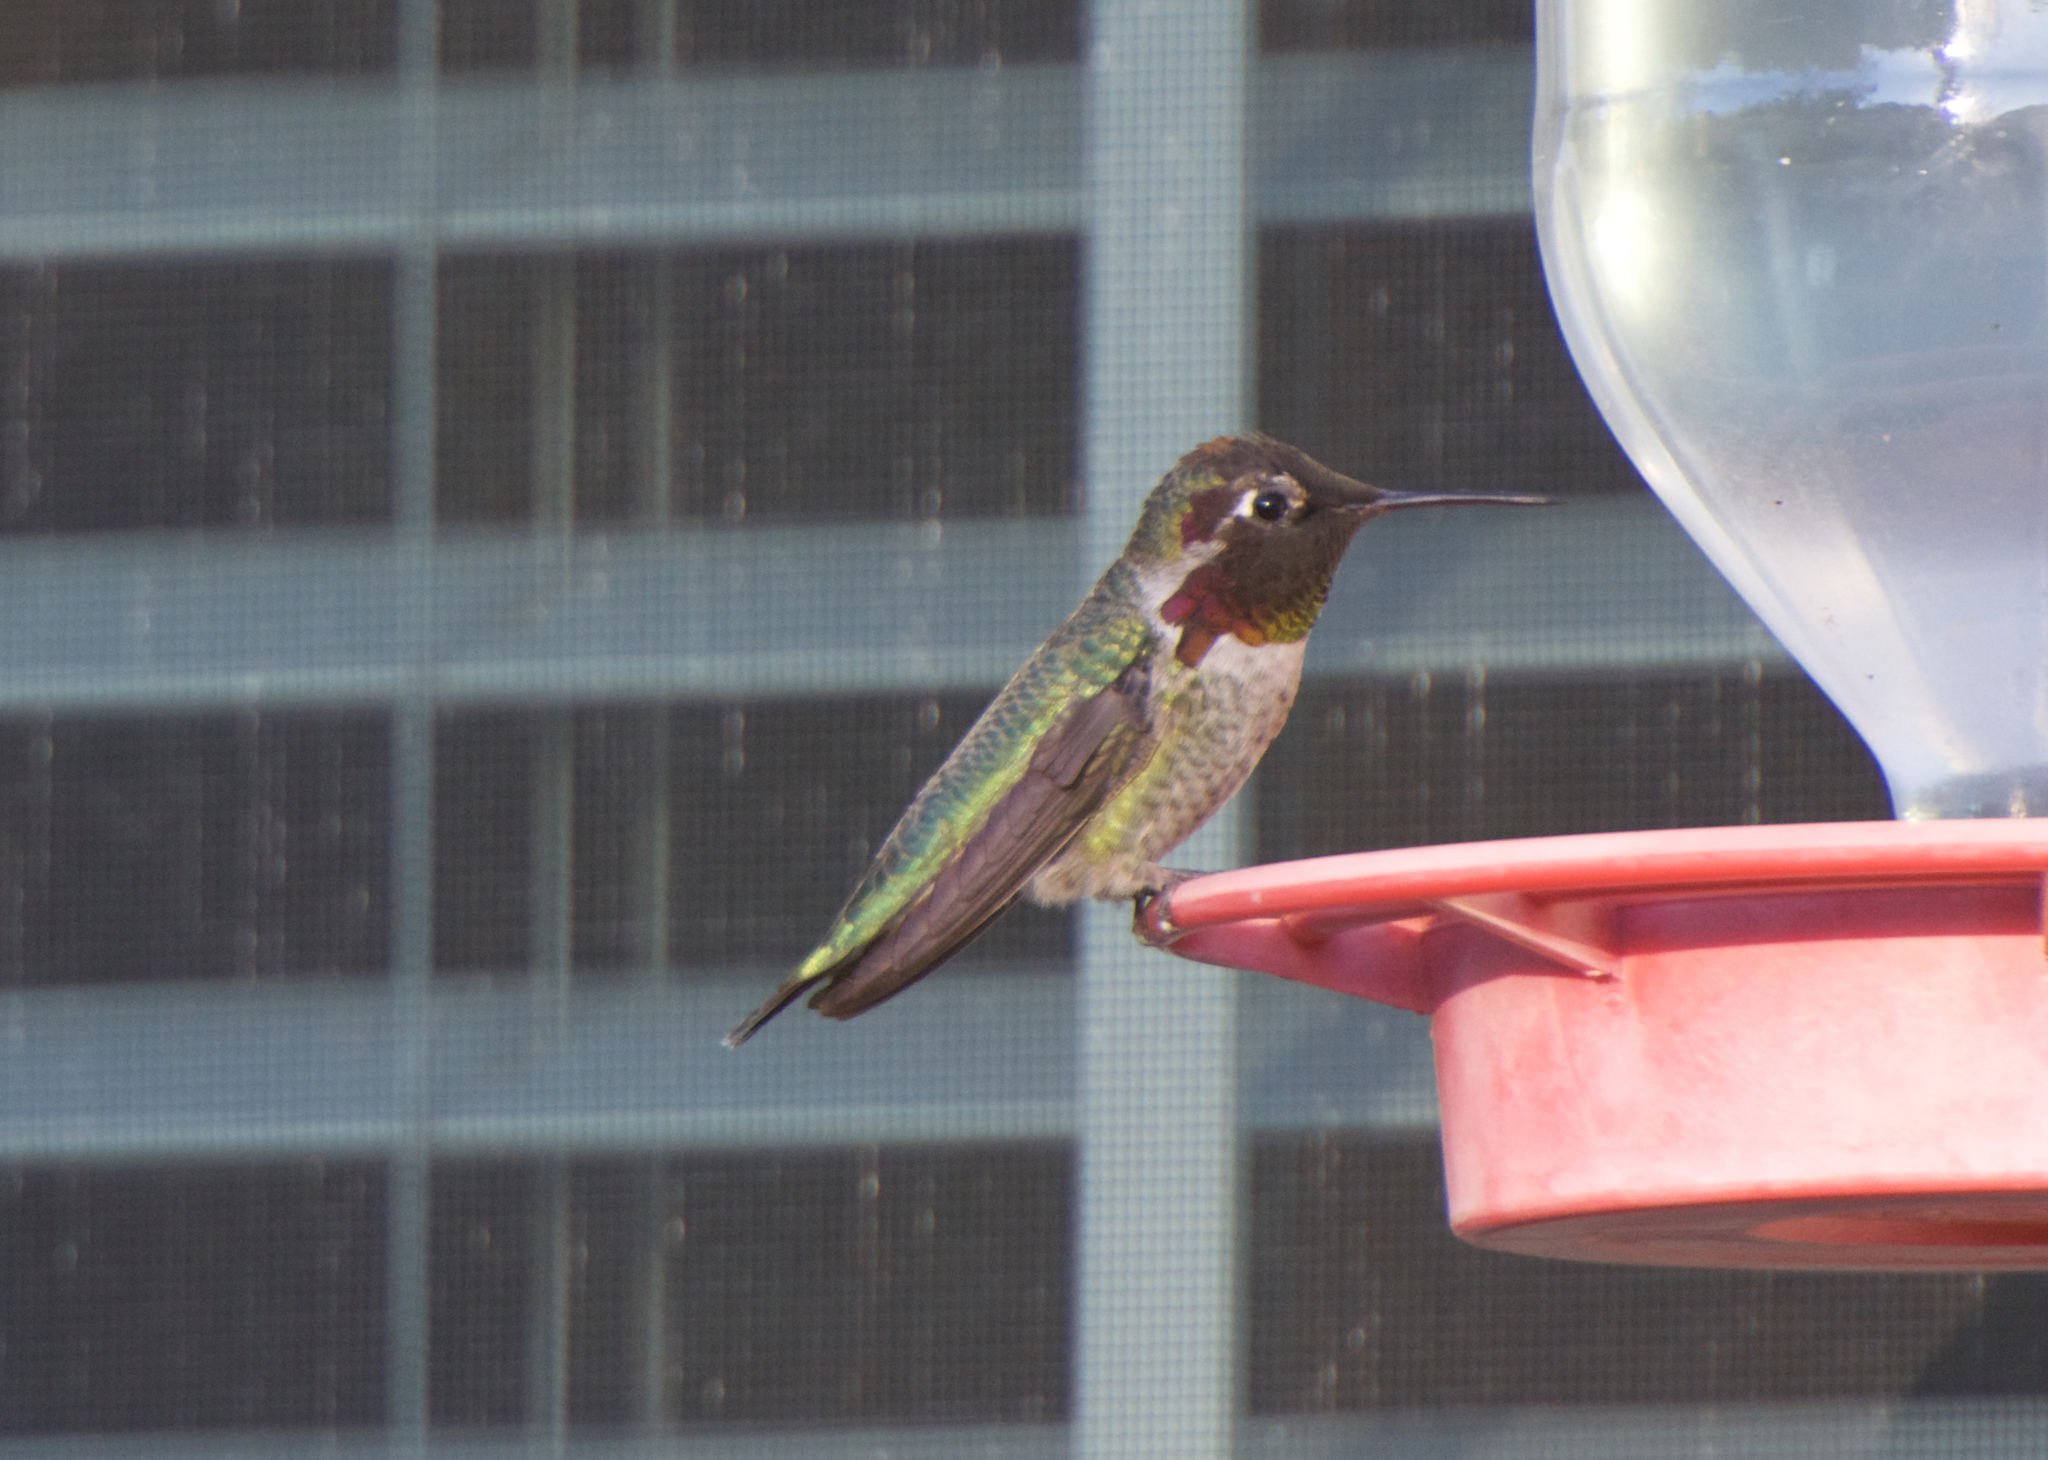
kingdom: Animalia
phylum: Chordata
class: Aves
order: Apodiformes
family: Trochilidae
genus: Calypte
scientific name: Calypte anna
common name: Anna's hummingbird
